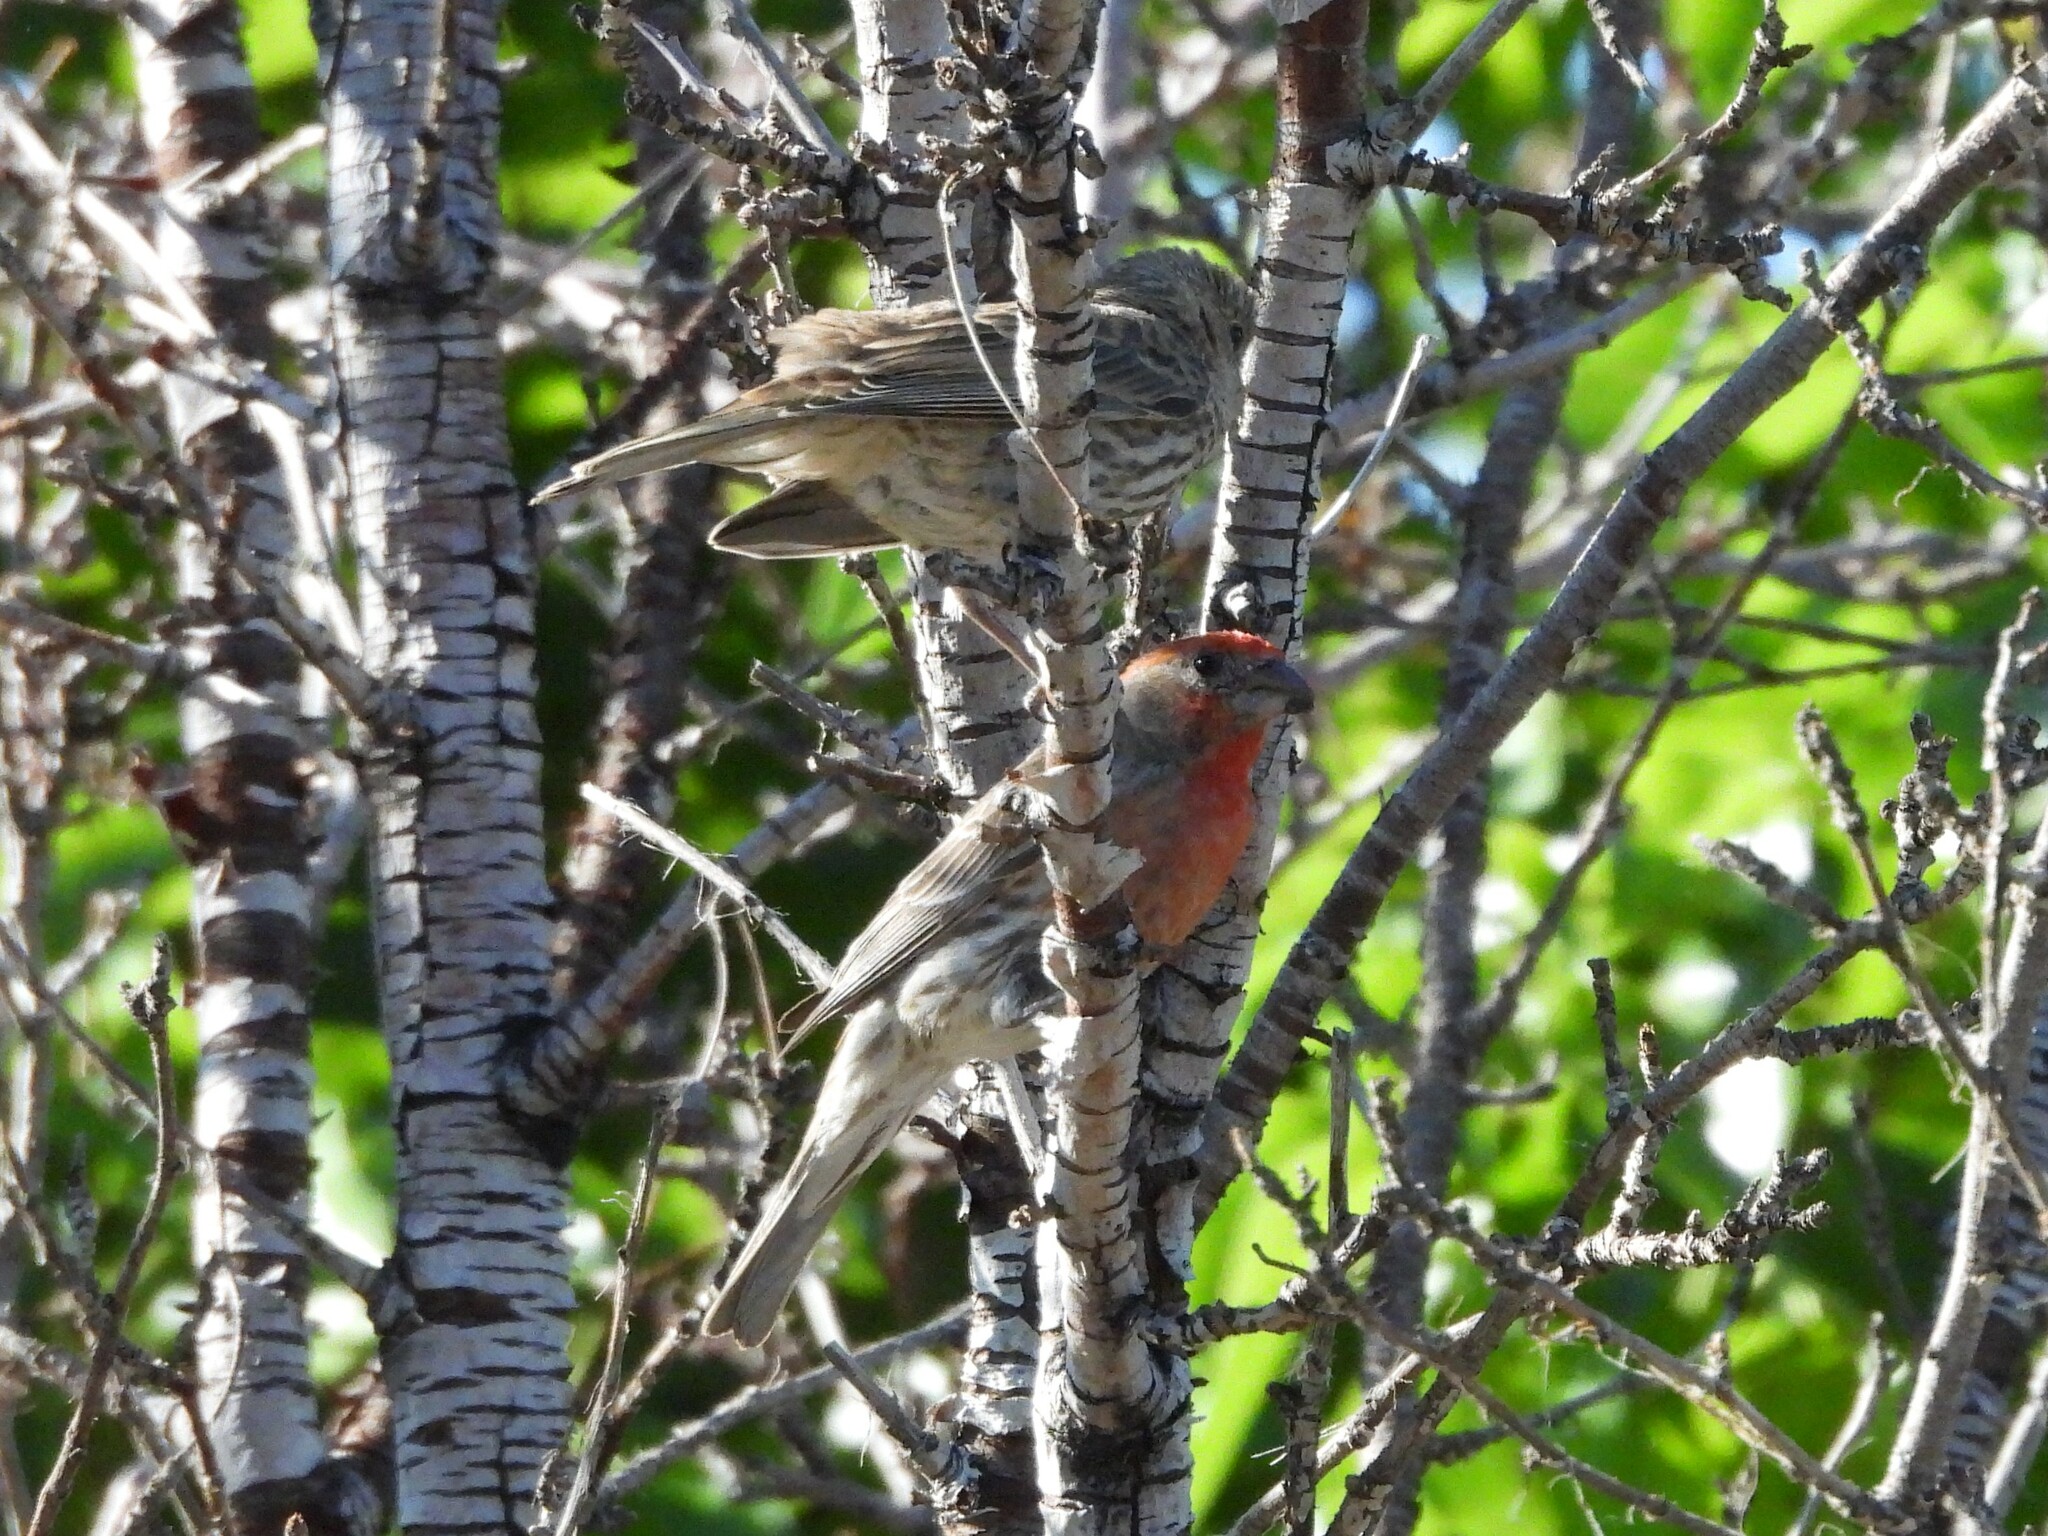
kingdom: Animalia
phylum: Chordata
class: Aves
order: Passeriformes
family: Fringillidae
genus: Haemorhous
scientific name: Haemorhous mexicanus
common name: House finch
